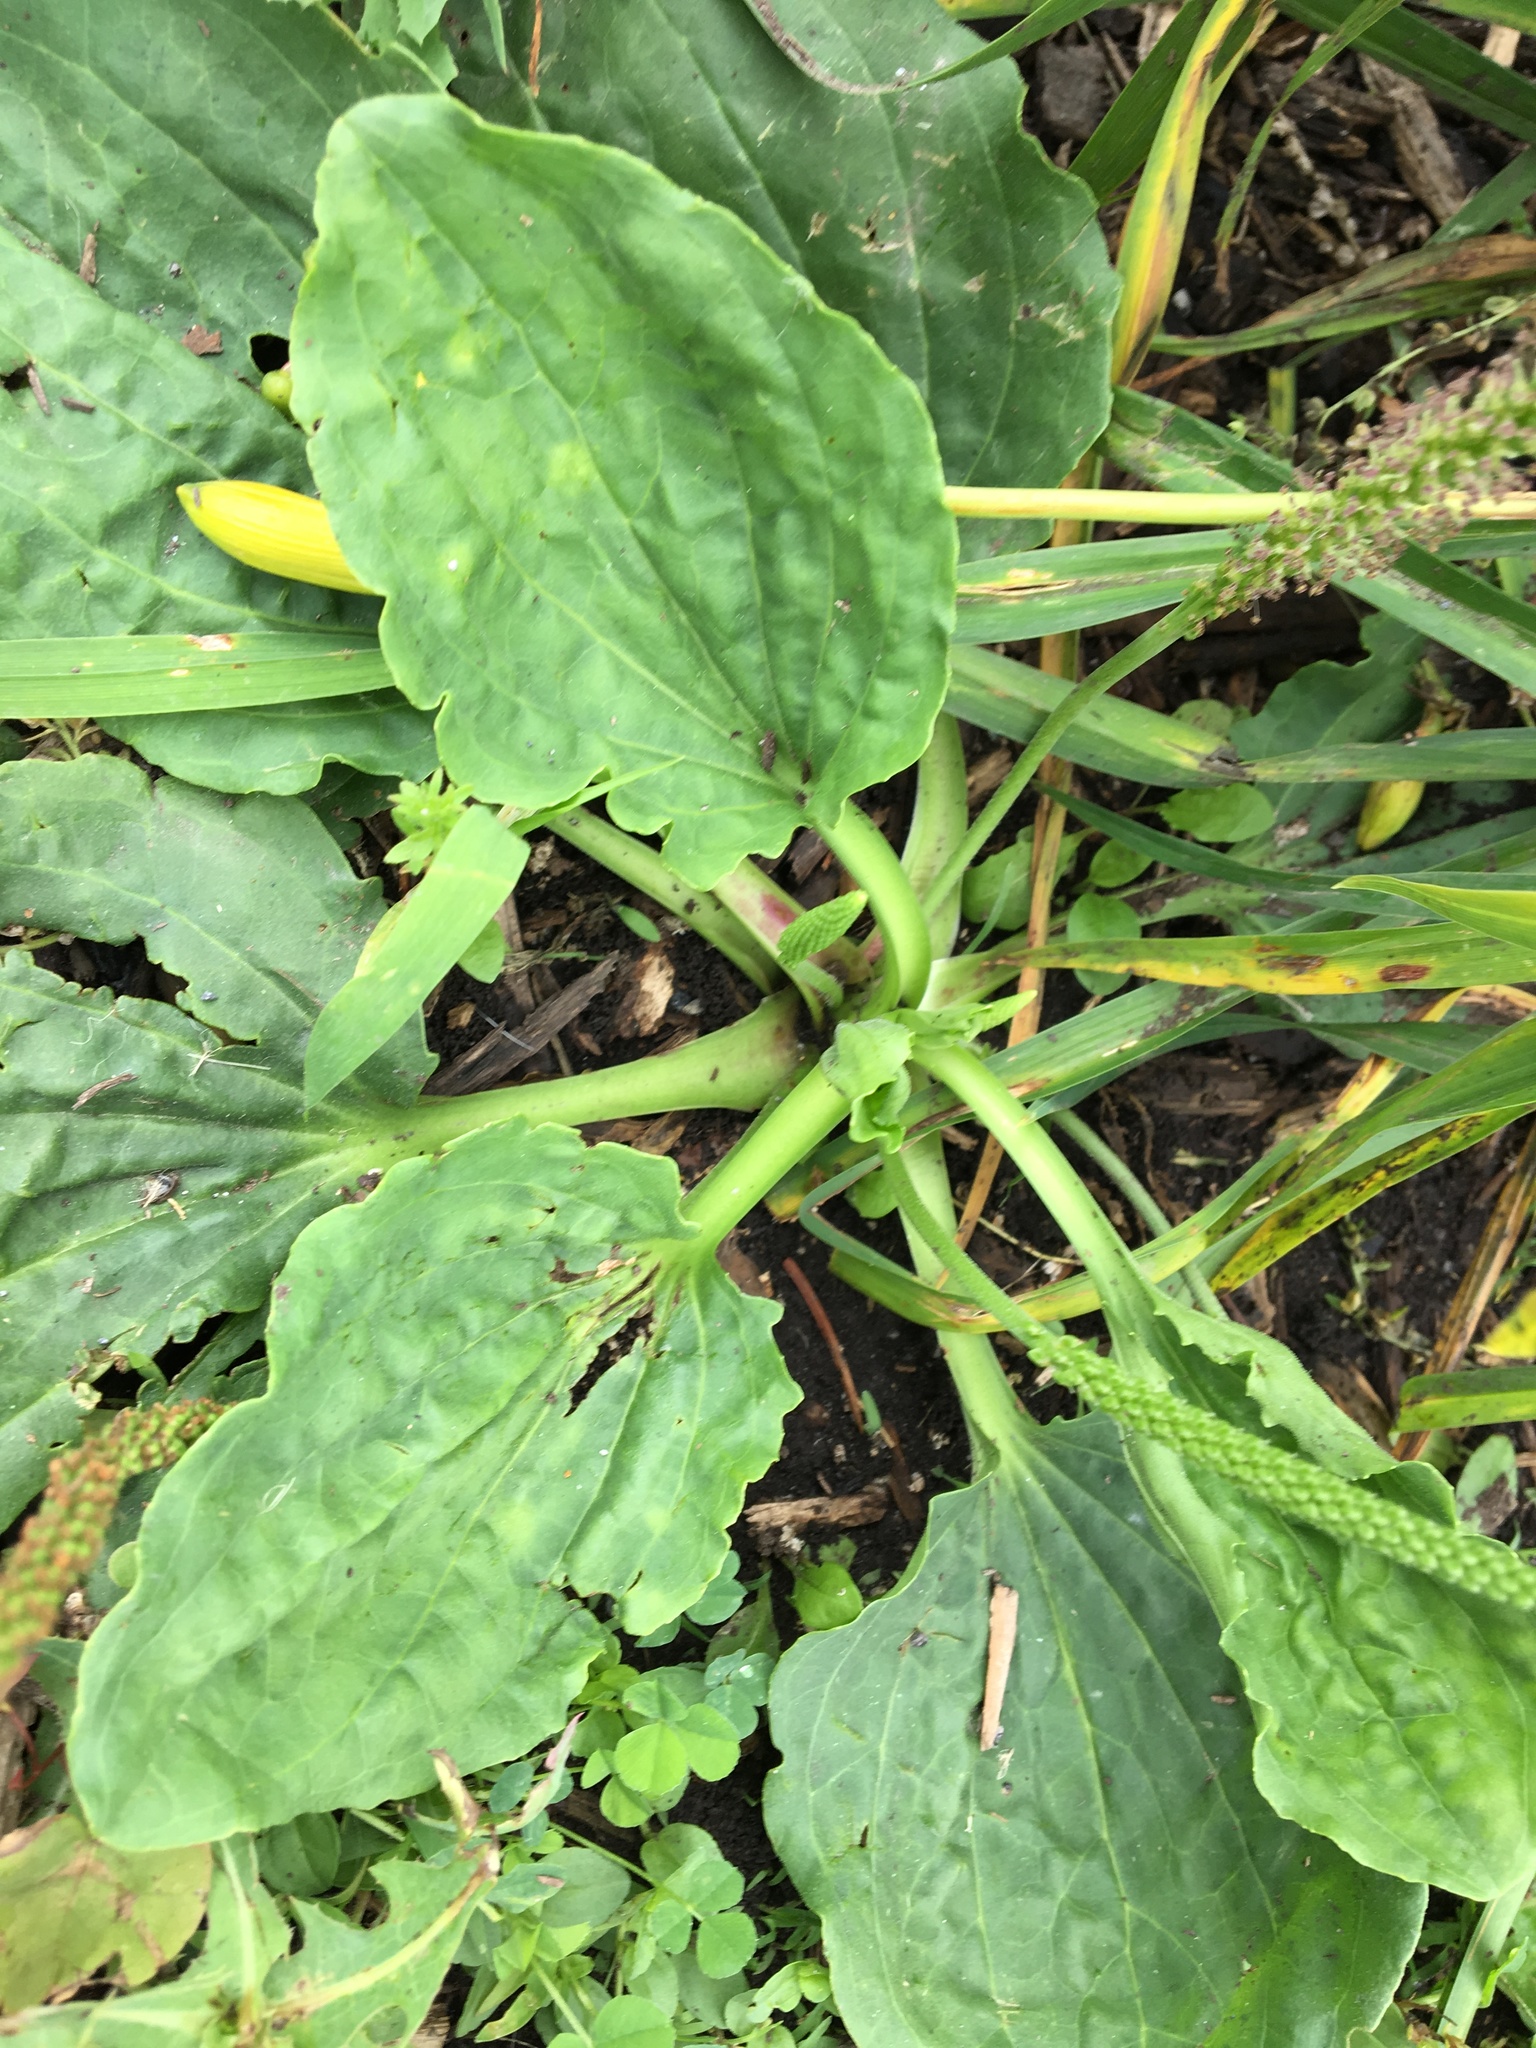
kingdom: Plantae
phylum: Tracheophyta
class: Magnoliopsida
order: Lamiales
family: Plantaginaceae
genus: Plantago
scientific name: Plantago major
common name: Common plantain
